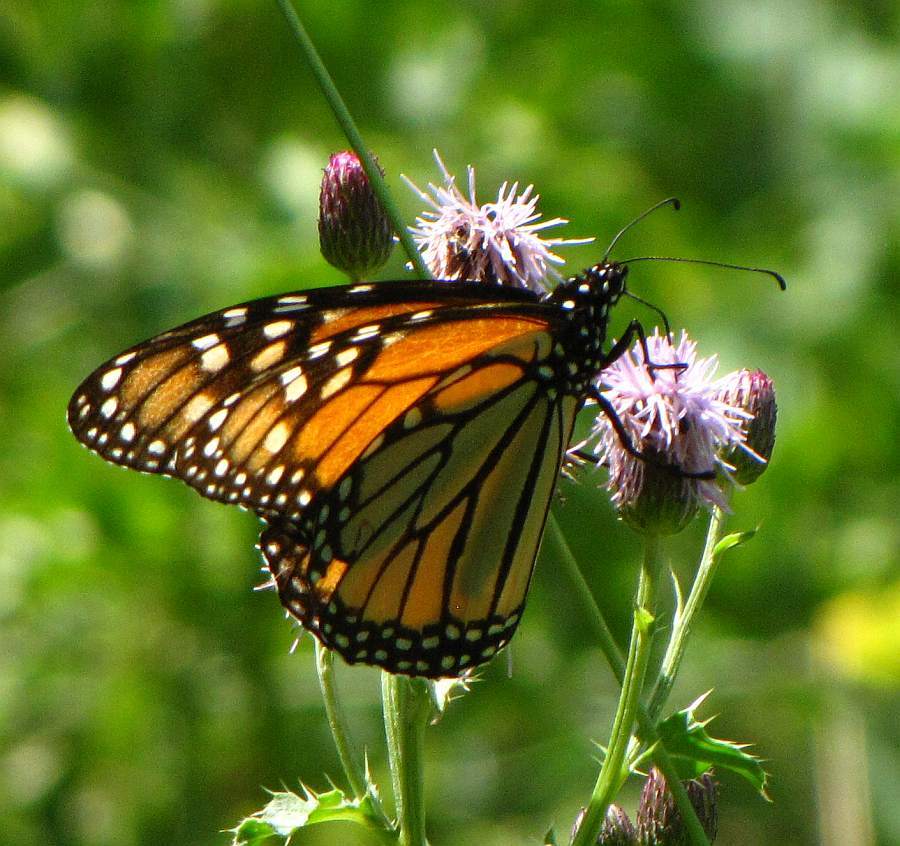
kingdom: Animalia
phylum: Arthropoda
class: Insecta
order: Lepidoptera
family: Nymphalidae
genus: Danaus
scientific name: Danaus plexippus
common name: Monarch
